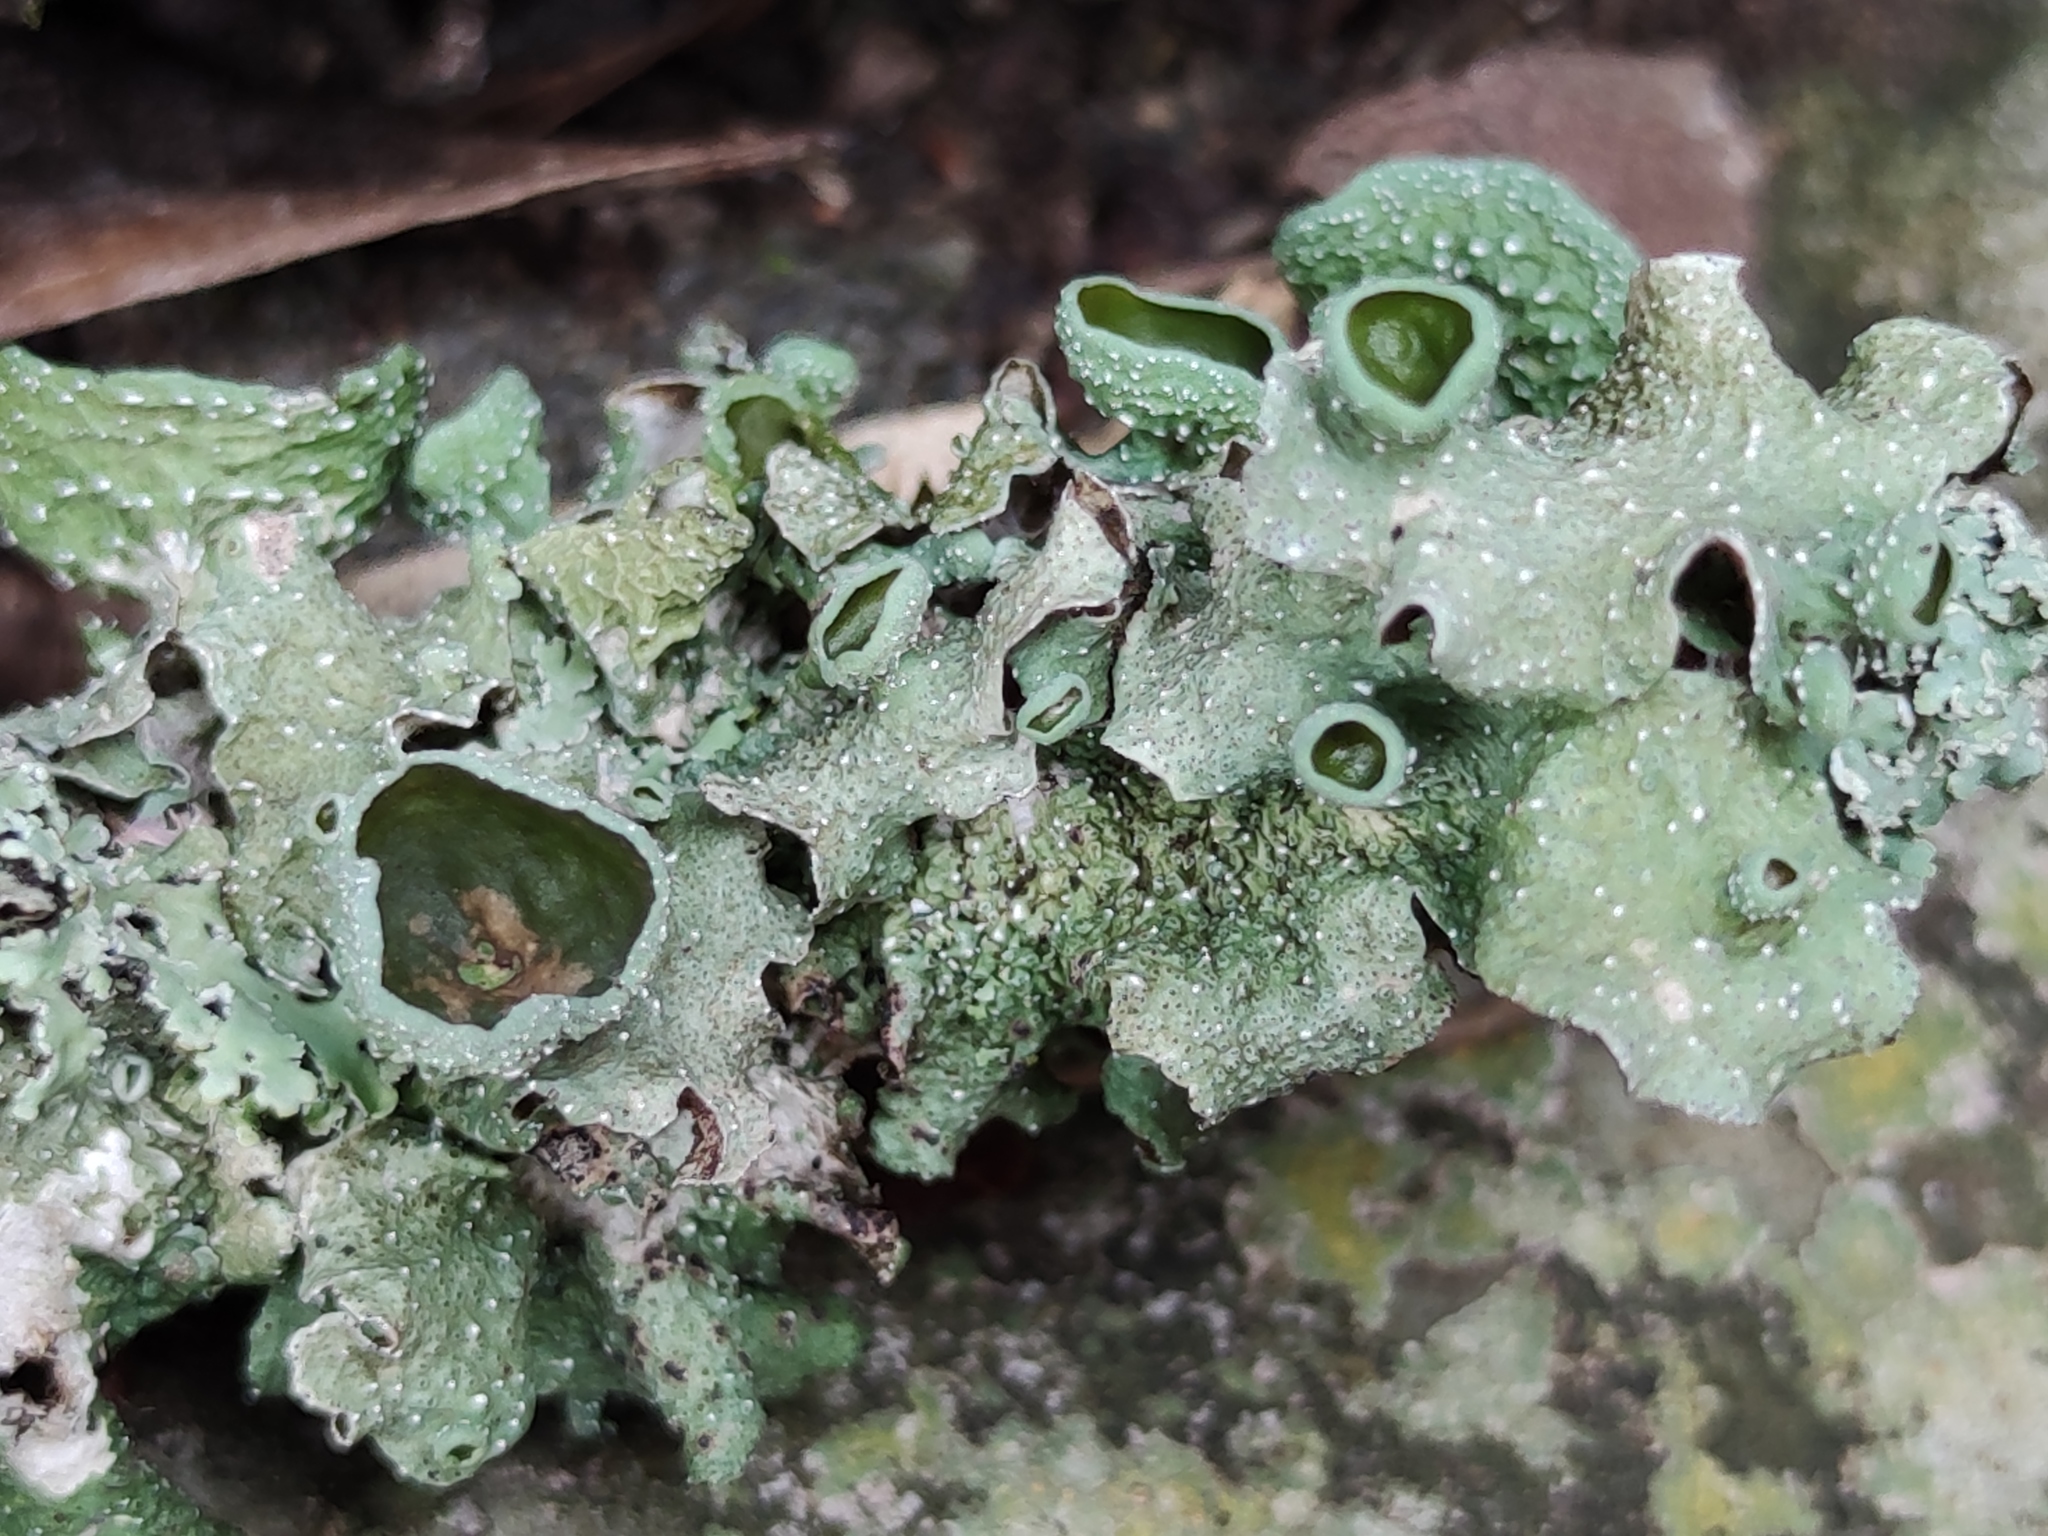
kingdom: Fungi
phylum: Ascomycota
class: Lecanoromycetes
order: Lecanorales
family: Parmeliaceae
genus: Punctelia
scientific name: Punctelia bolliana
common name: Eastern speckled shield lichen
